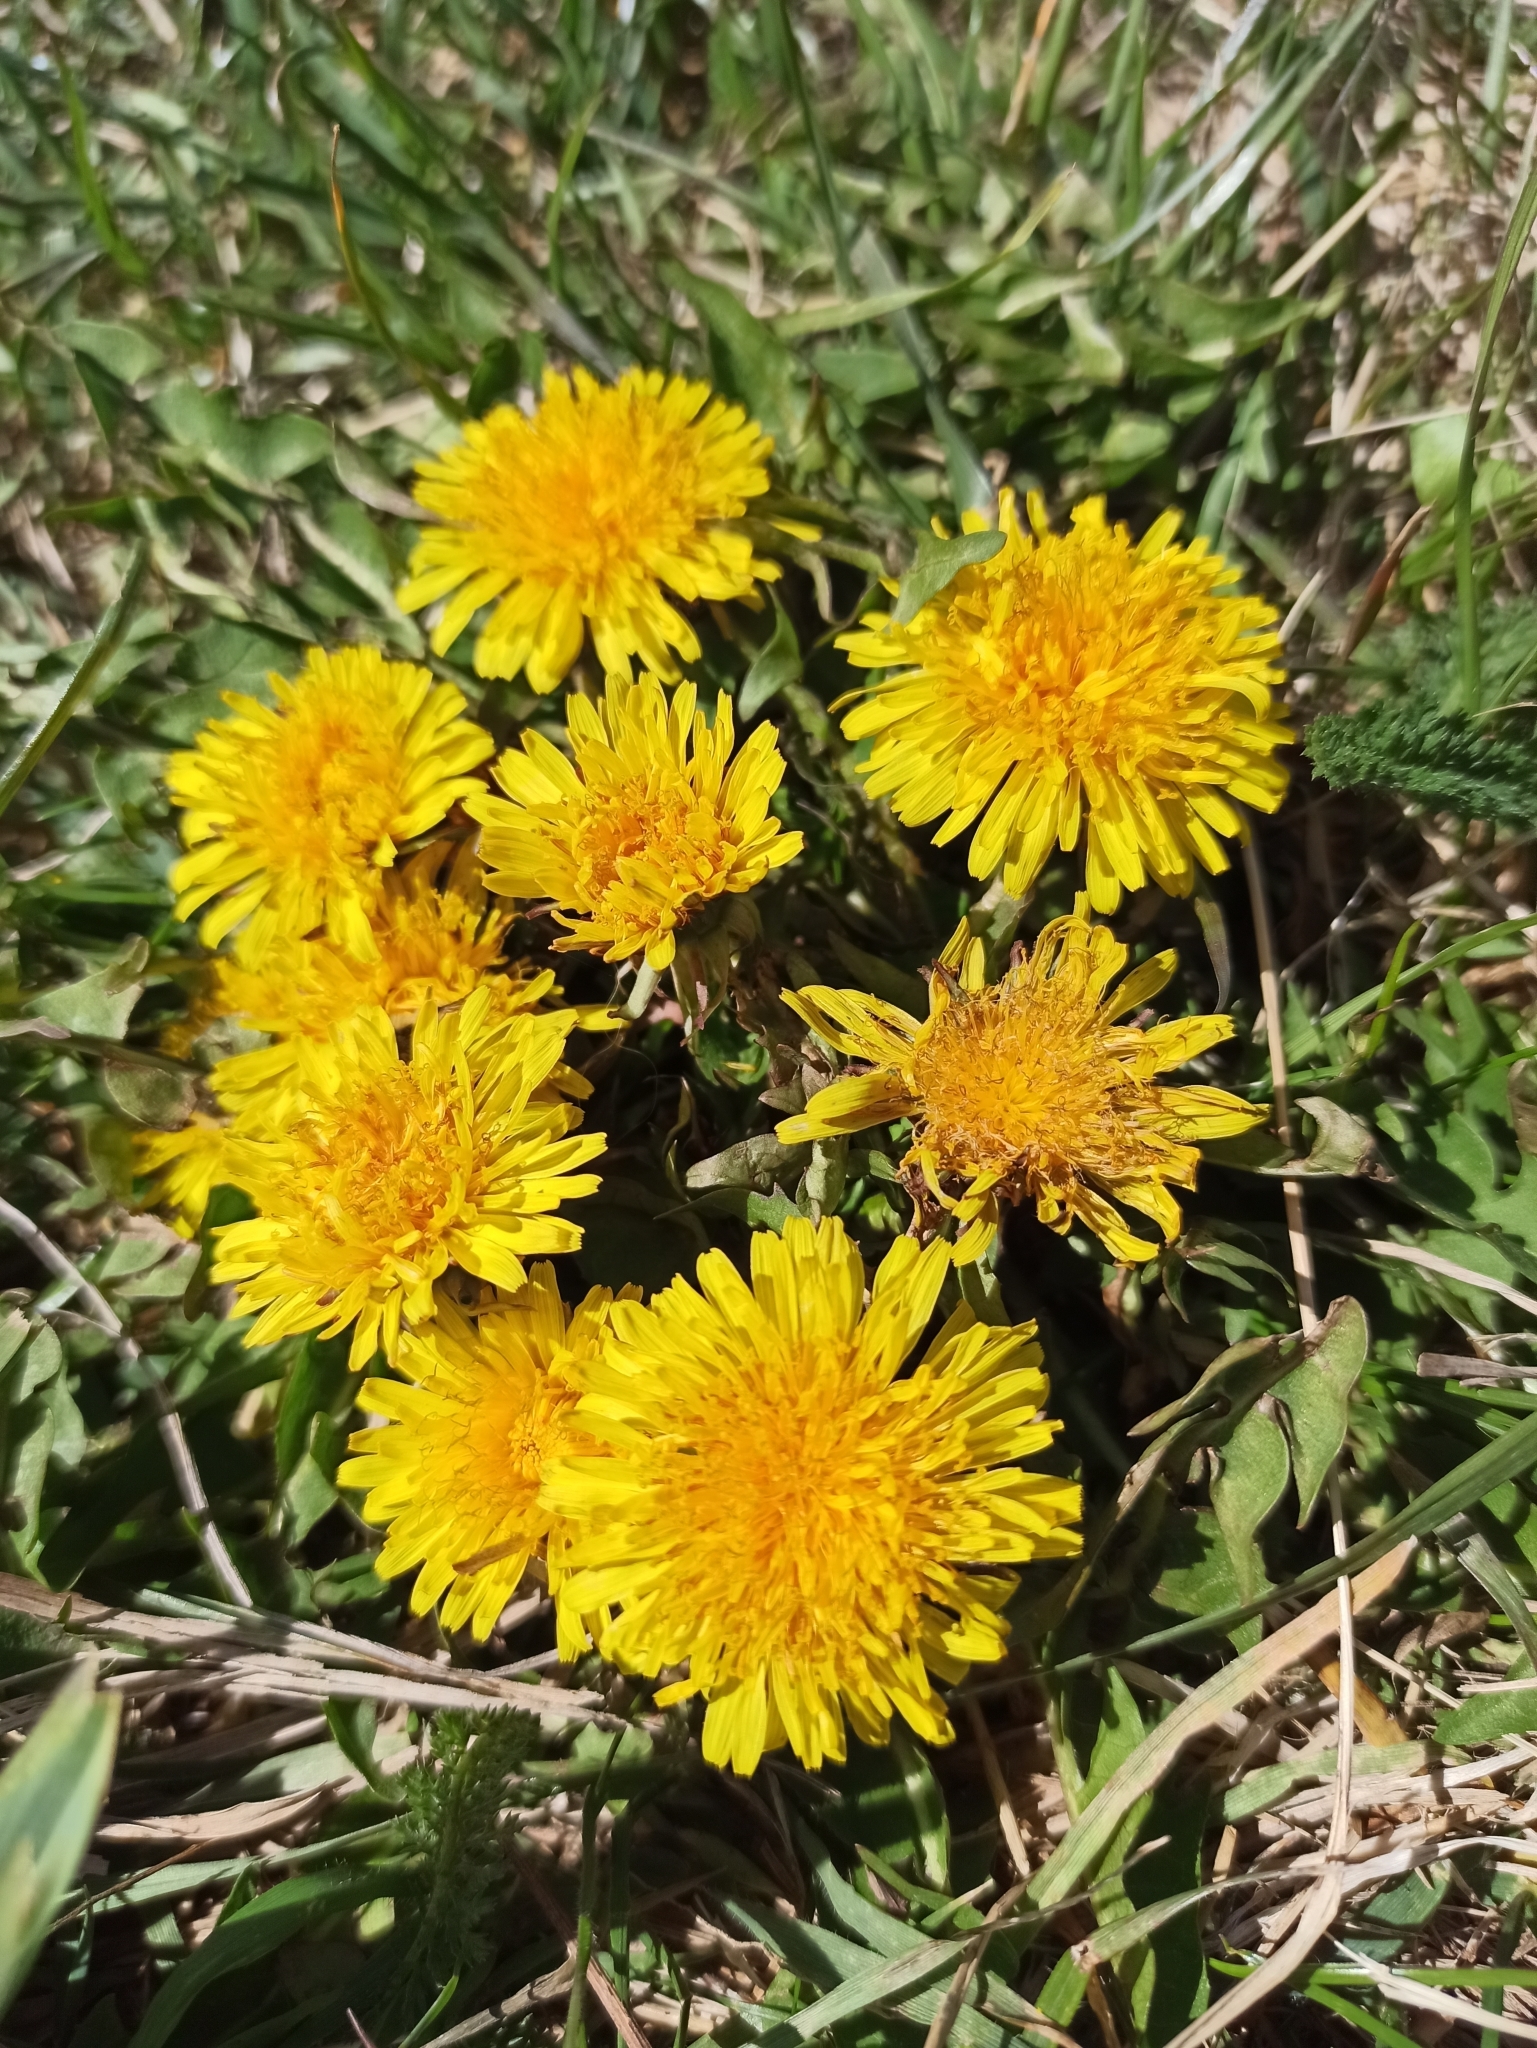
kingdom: Plantae
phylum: Tracheophyta
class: Magnoliopsida
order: Asterales
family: Asteraceae
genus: Taraxacum
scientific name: Taraxacum
